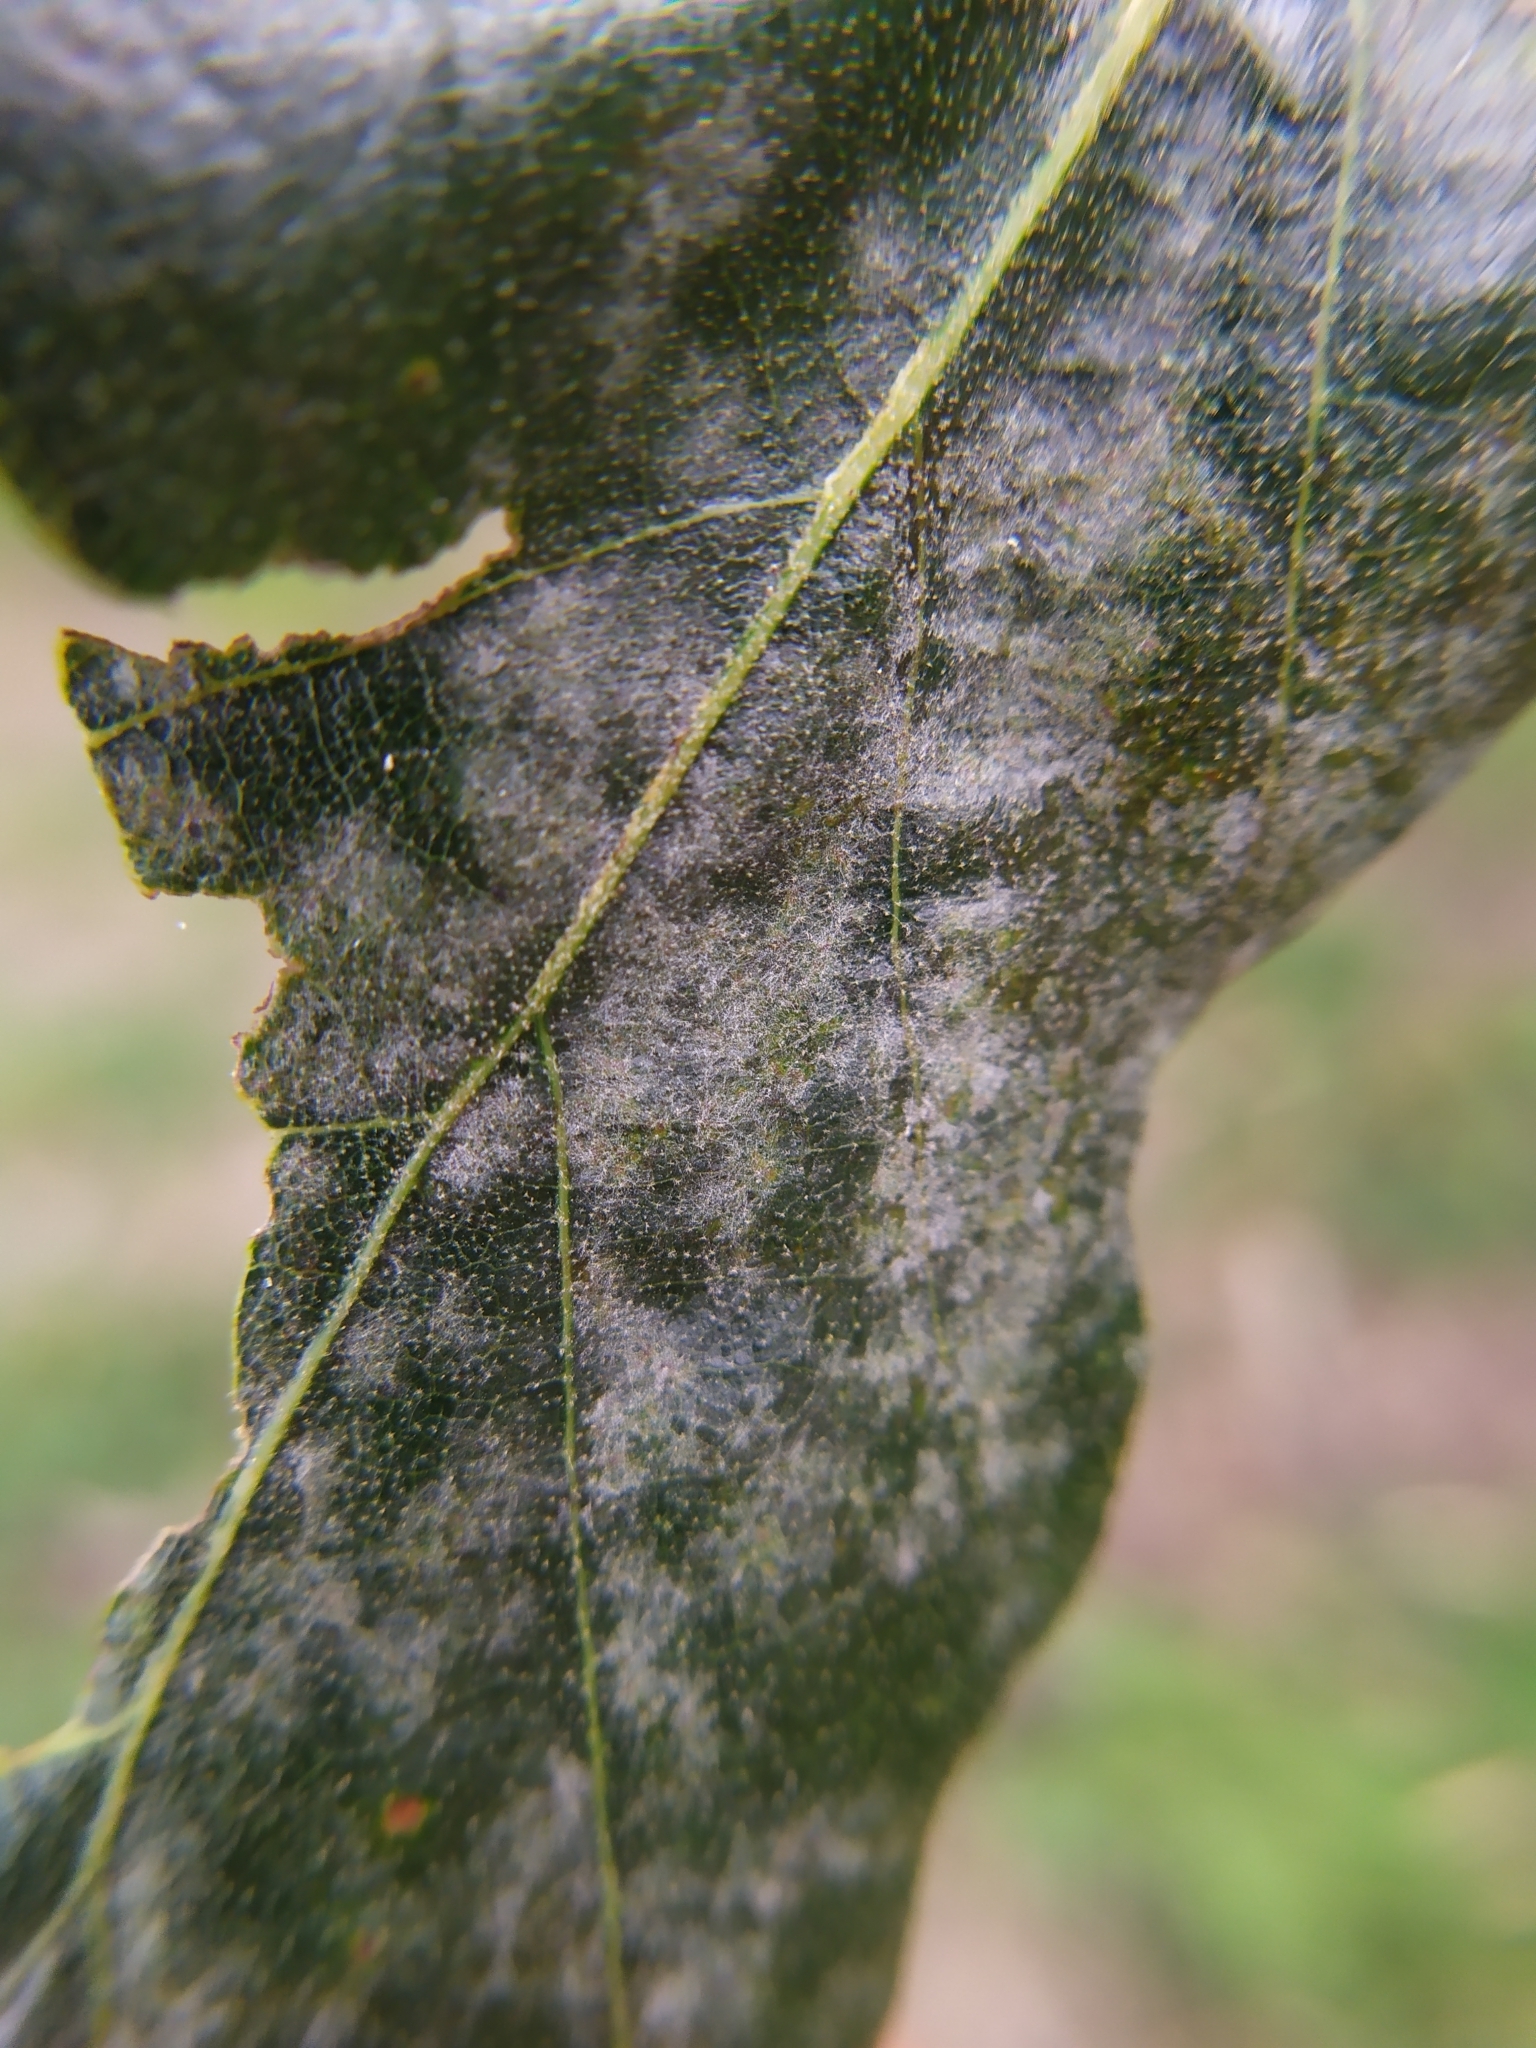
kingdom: Fungi
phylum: Ascomycota
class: Leotiomycetes
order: Helotiales
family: Erysiphaceae
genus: Erysiphe
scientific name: Erysiphe
